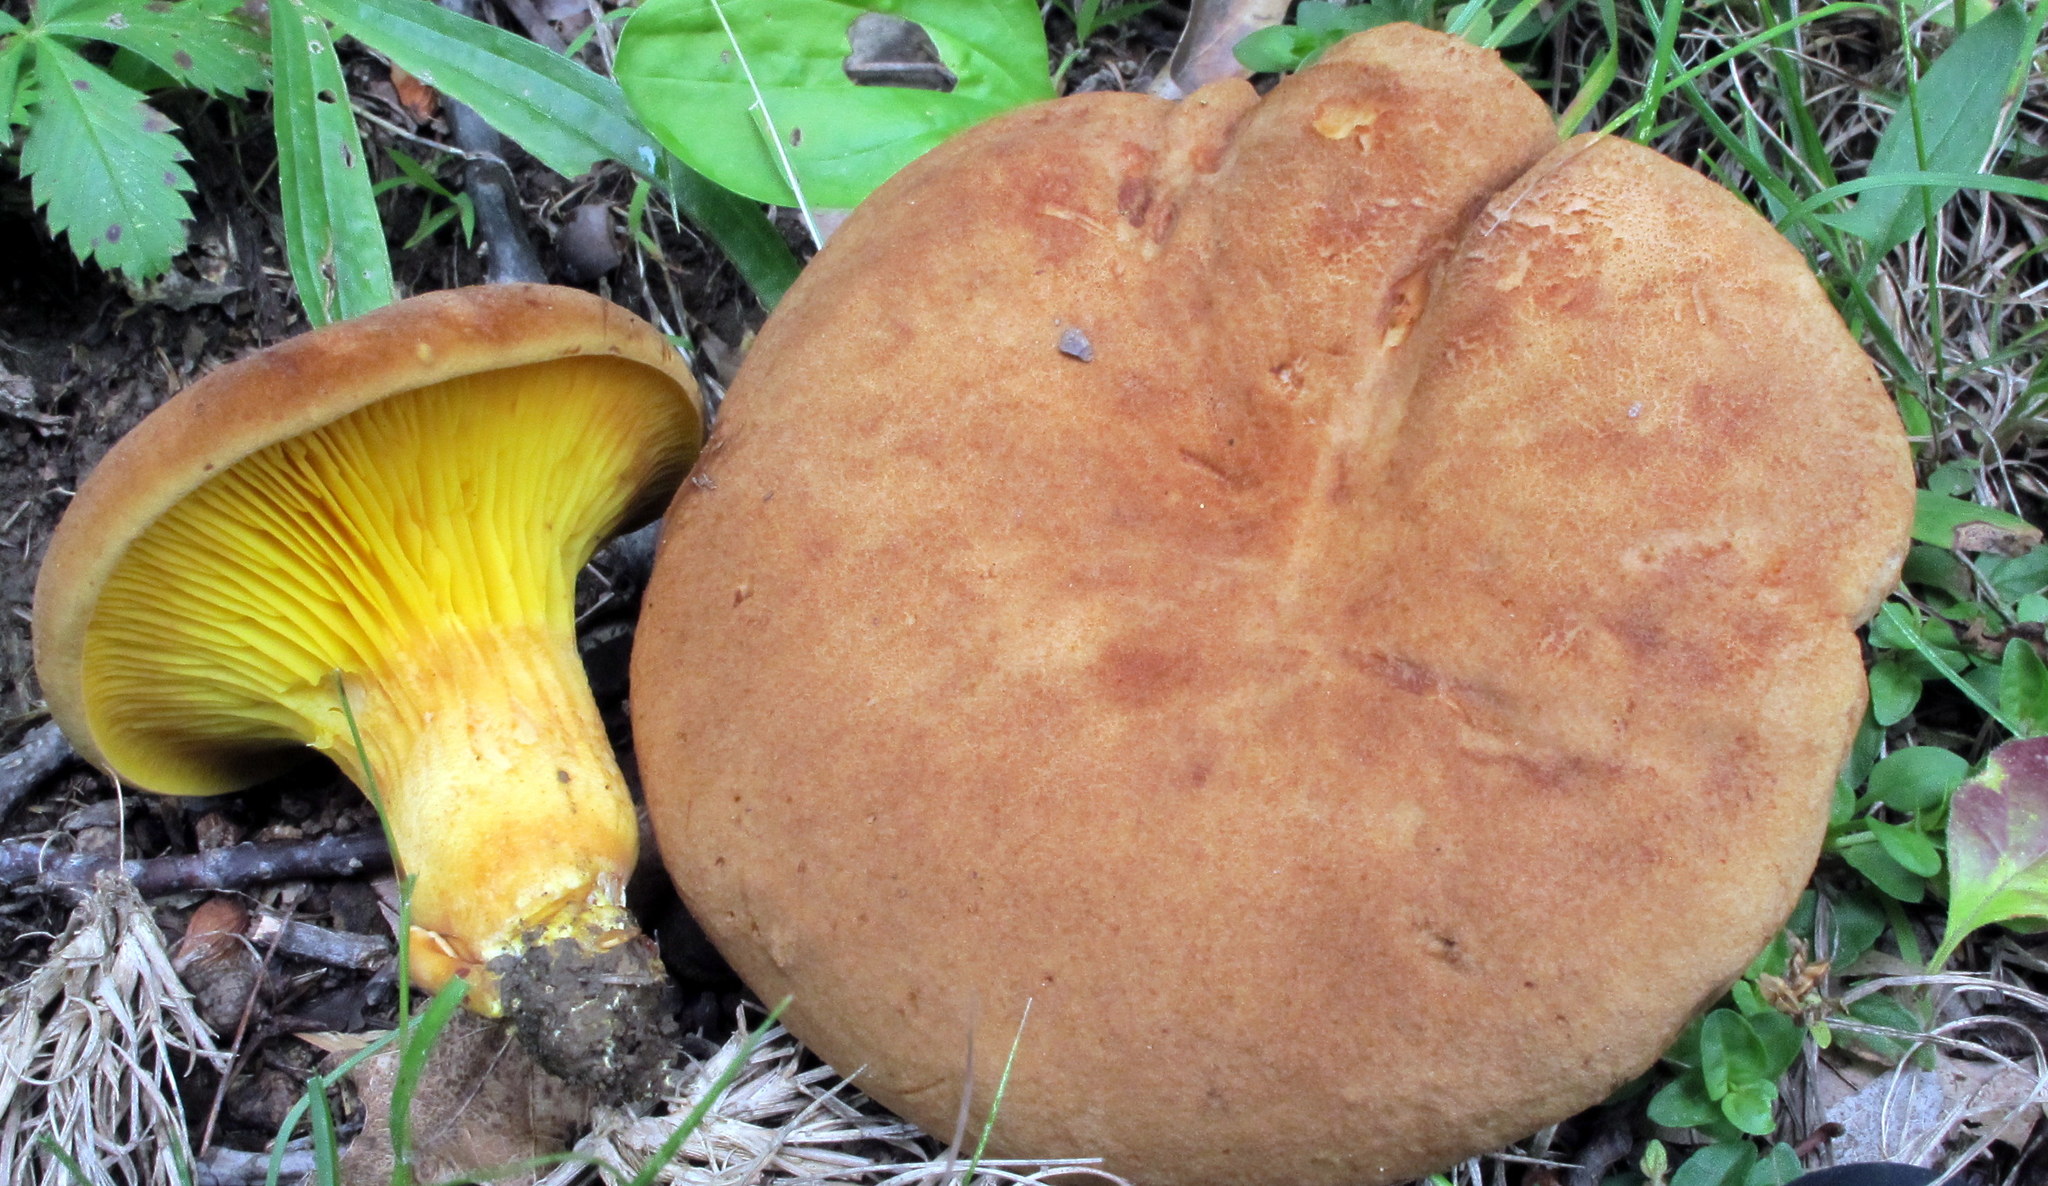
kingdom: Fungi
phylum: Basidiomycota
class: Agaricomycetes
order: Boletales
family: Boletaceae
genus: Phylloporus
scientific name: Phylloporus rhodoxanthus
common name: Golden gilled bolete
